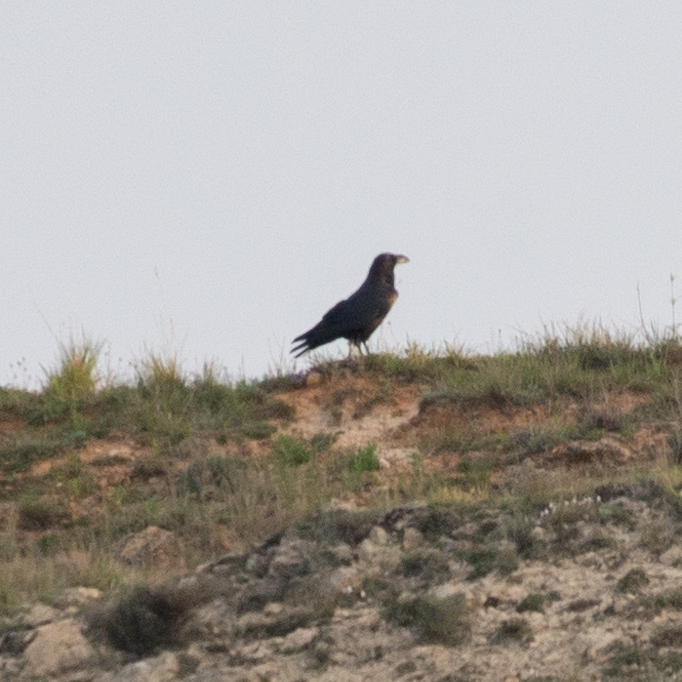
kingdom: Animalia
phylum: Chordata
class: Aves
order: Passeriformes
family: Corvidae
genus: Corvus
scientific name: Corvus corax
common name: Common raven
